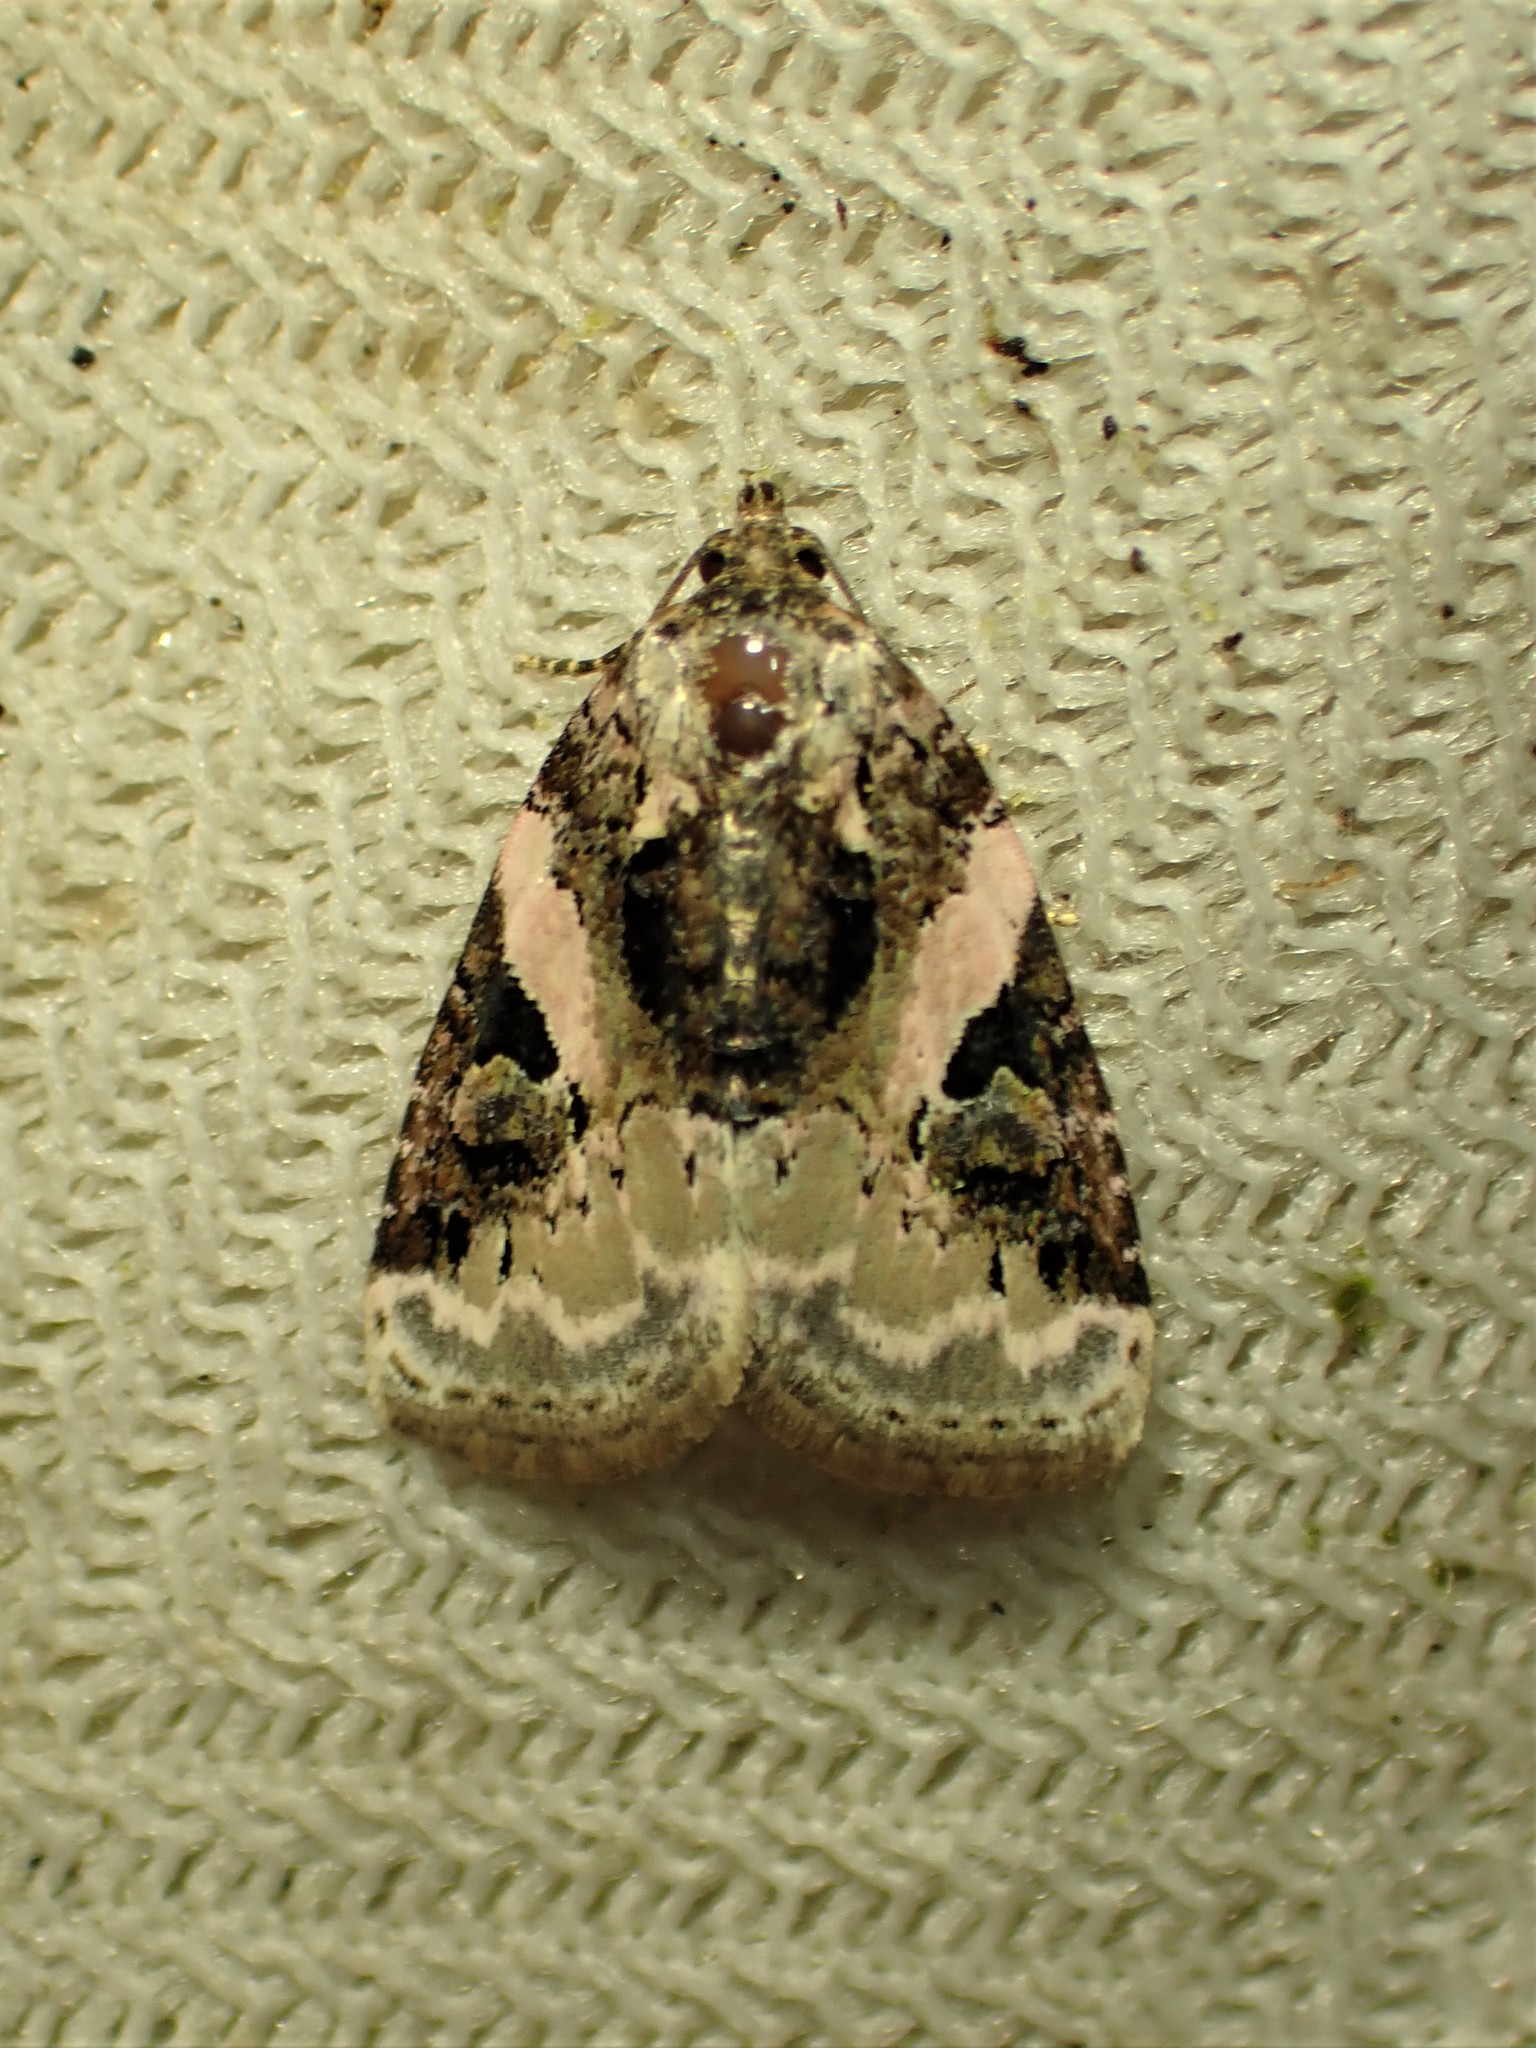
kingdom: Animalia
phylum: Arthropoda
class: Insecta
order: Lepidoptera
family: Noctuidae
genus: Pseudeustrotia
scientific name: Pseudeustrotia carneola
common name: Pink-barred lithacodia moth
